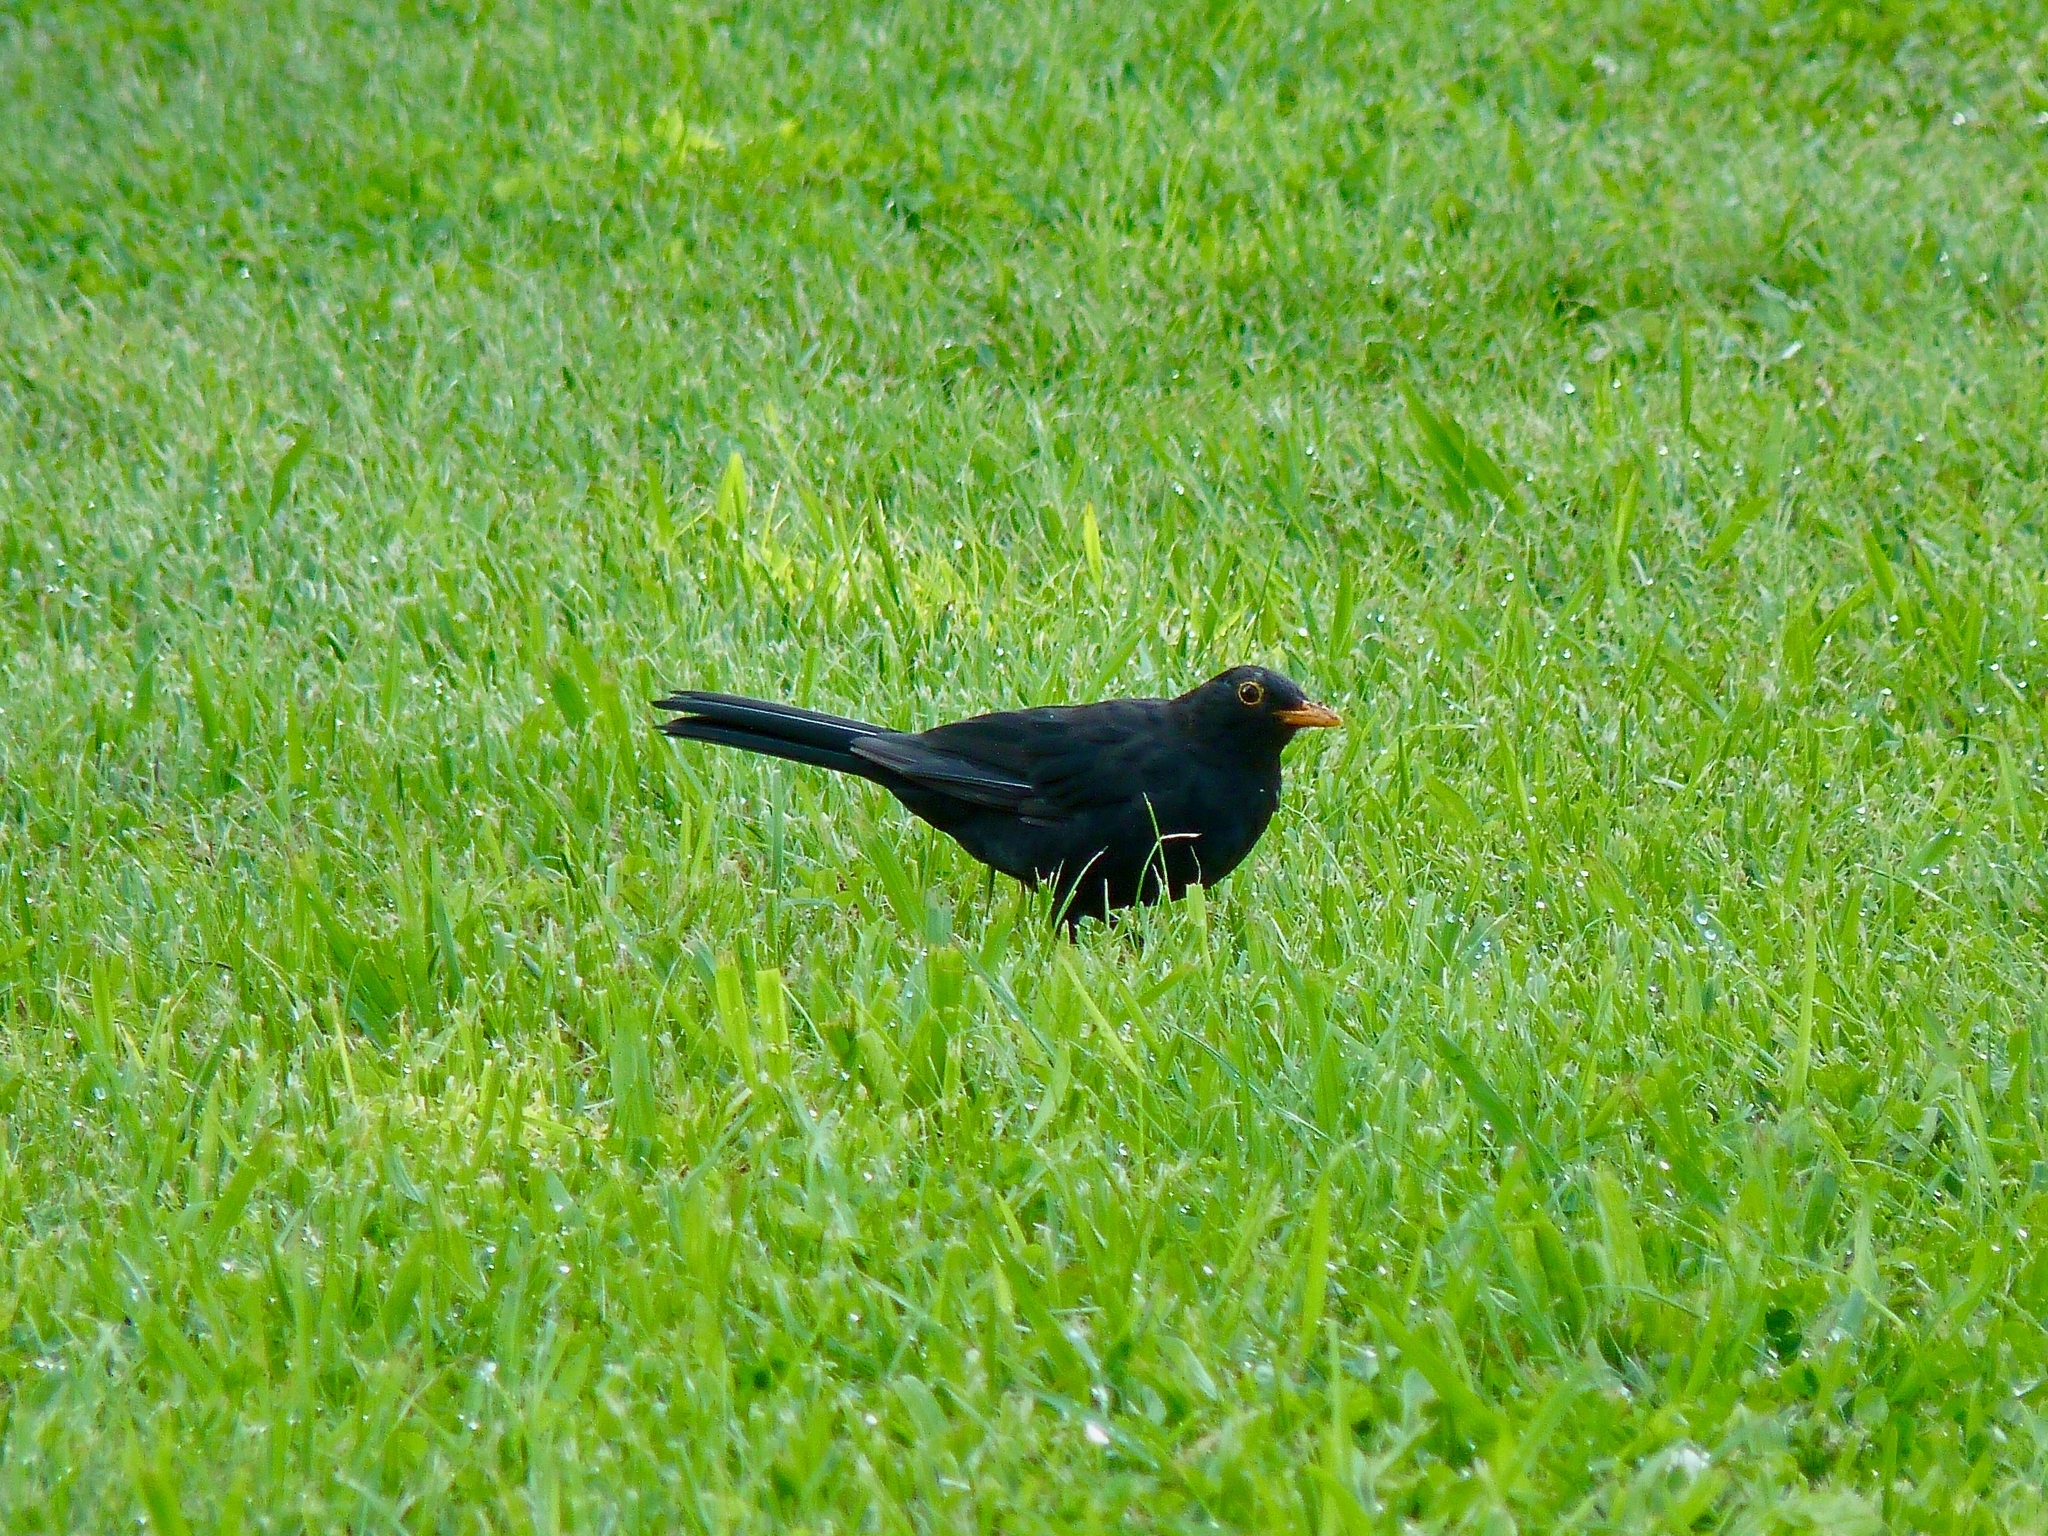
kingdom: Animalia
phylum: Chordata
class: Aves
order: Passeriformes
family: Turdidae
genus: Turdus
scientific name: Turdus merula
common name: Common blackbird
